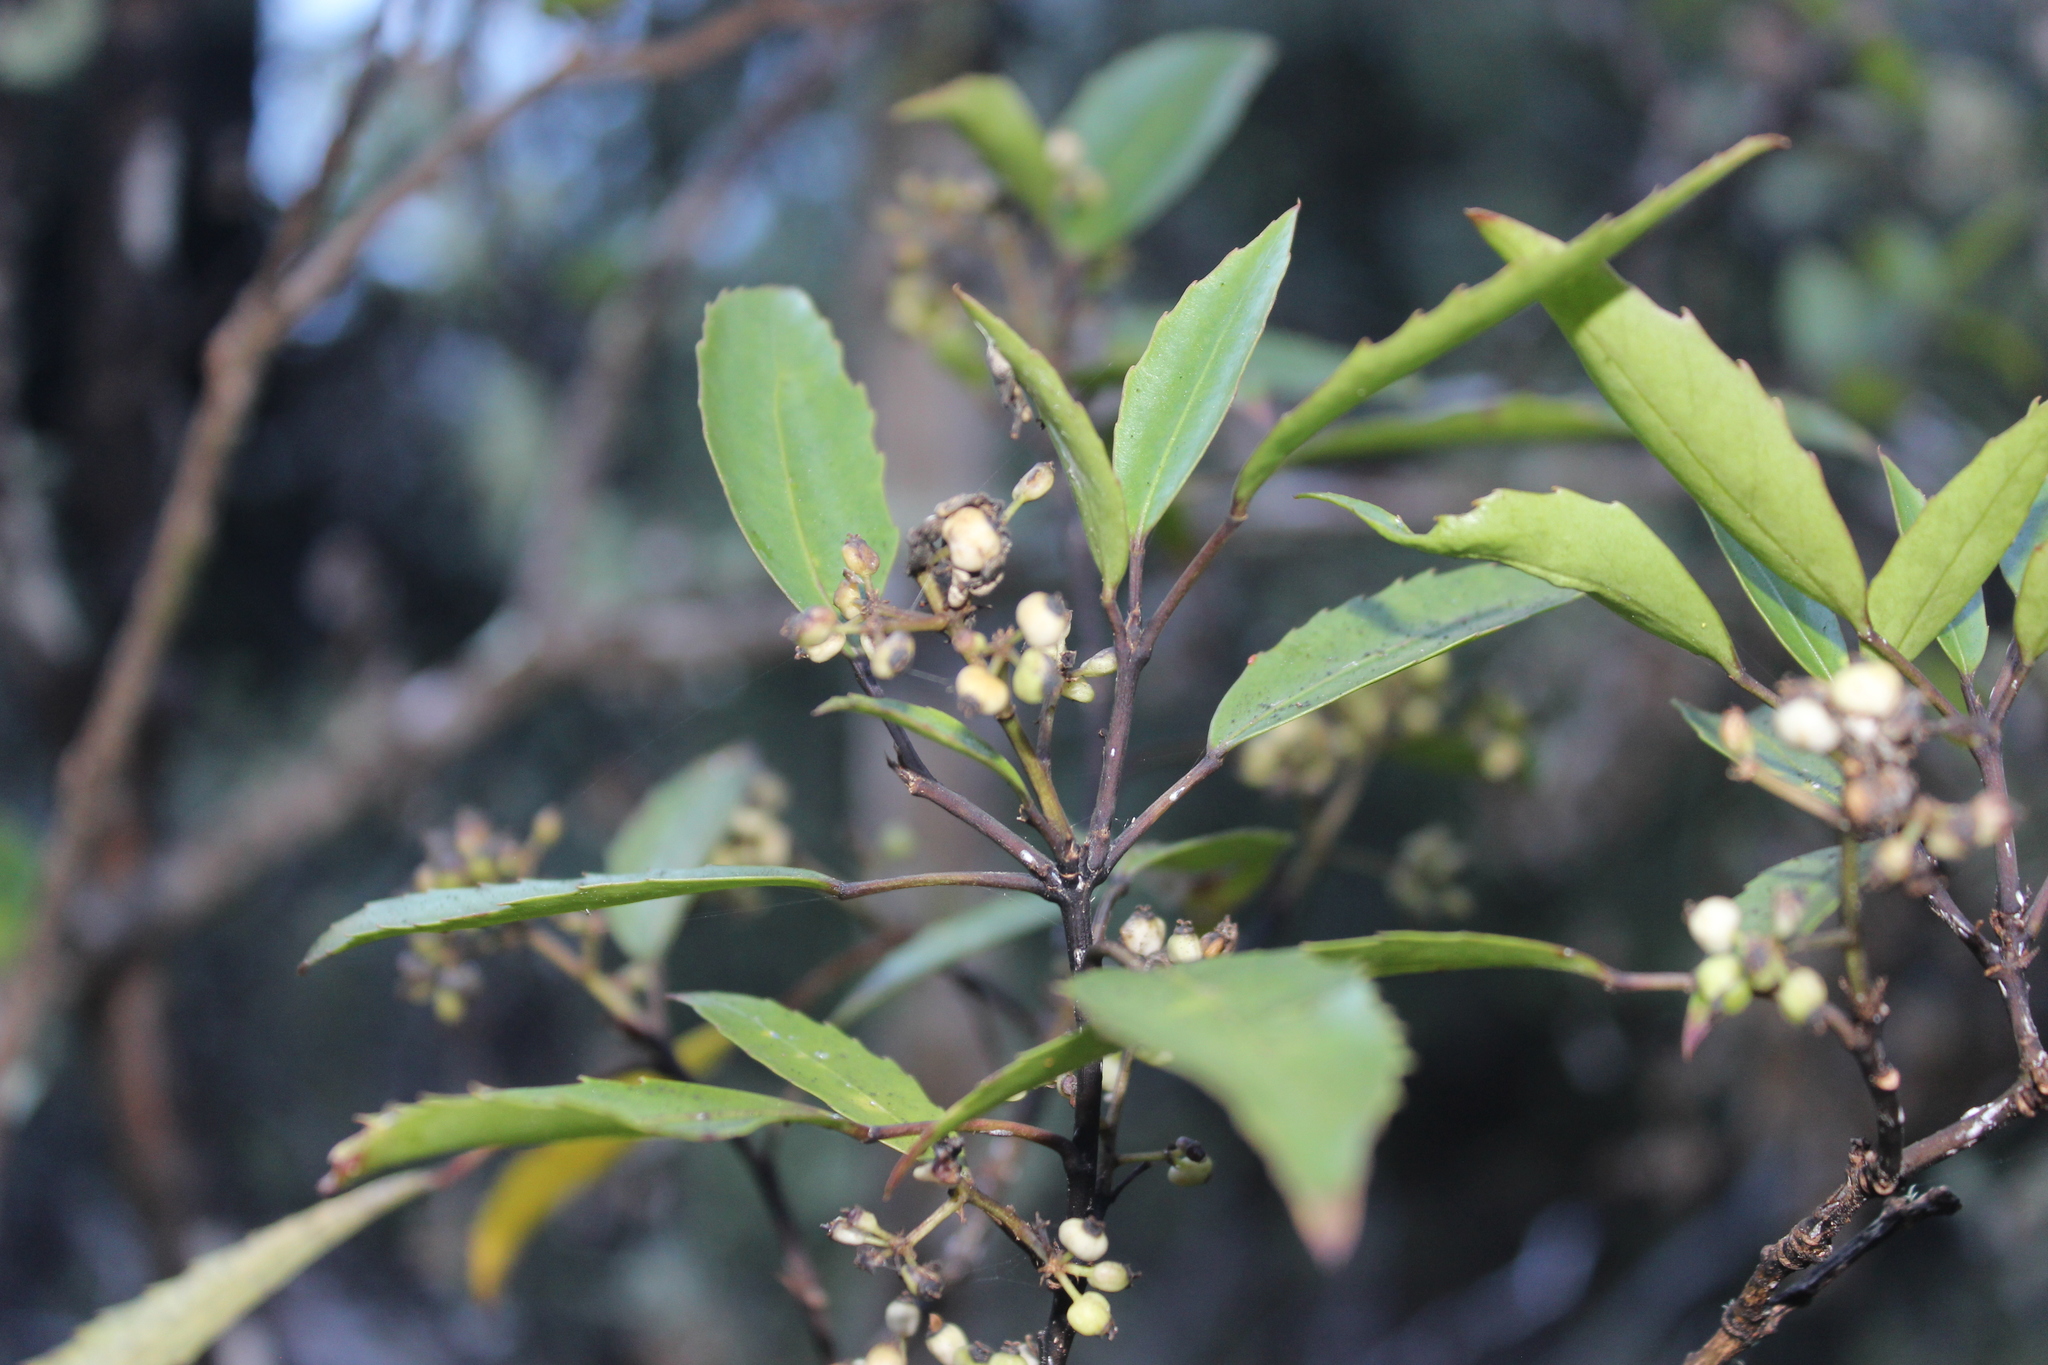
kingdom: Plantae
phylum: Tracheophyta
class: Magnoliopsida
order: Apiales
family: Araliaceae
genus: Raukaua
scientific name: Raukaua simplex
